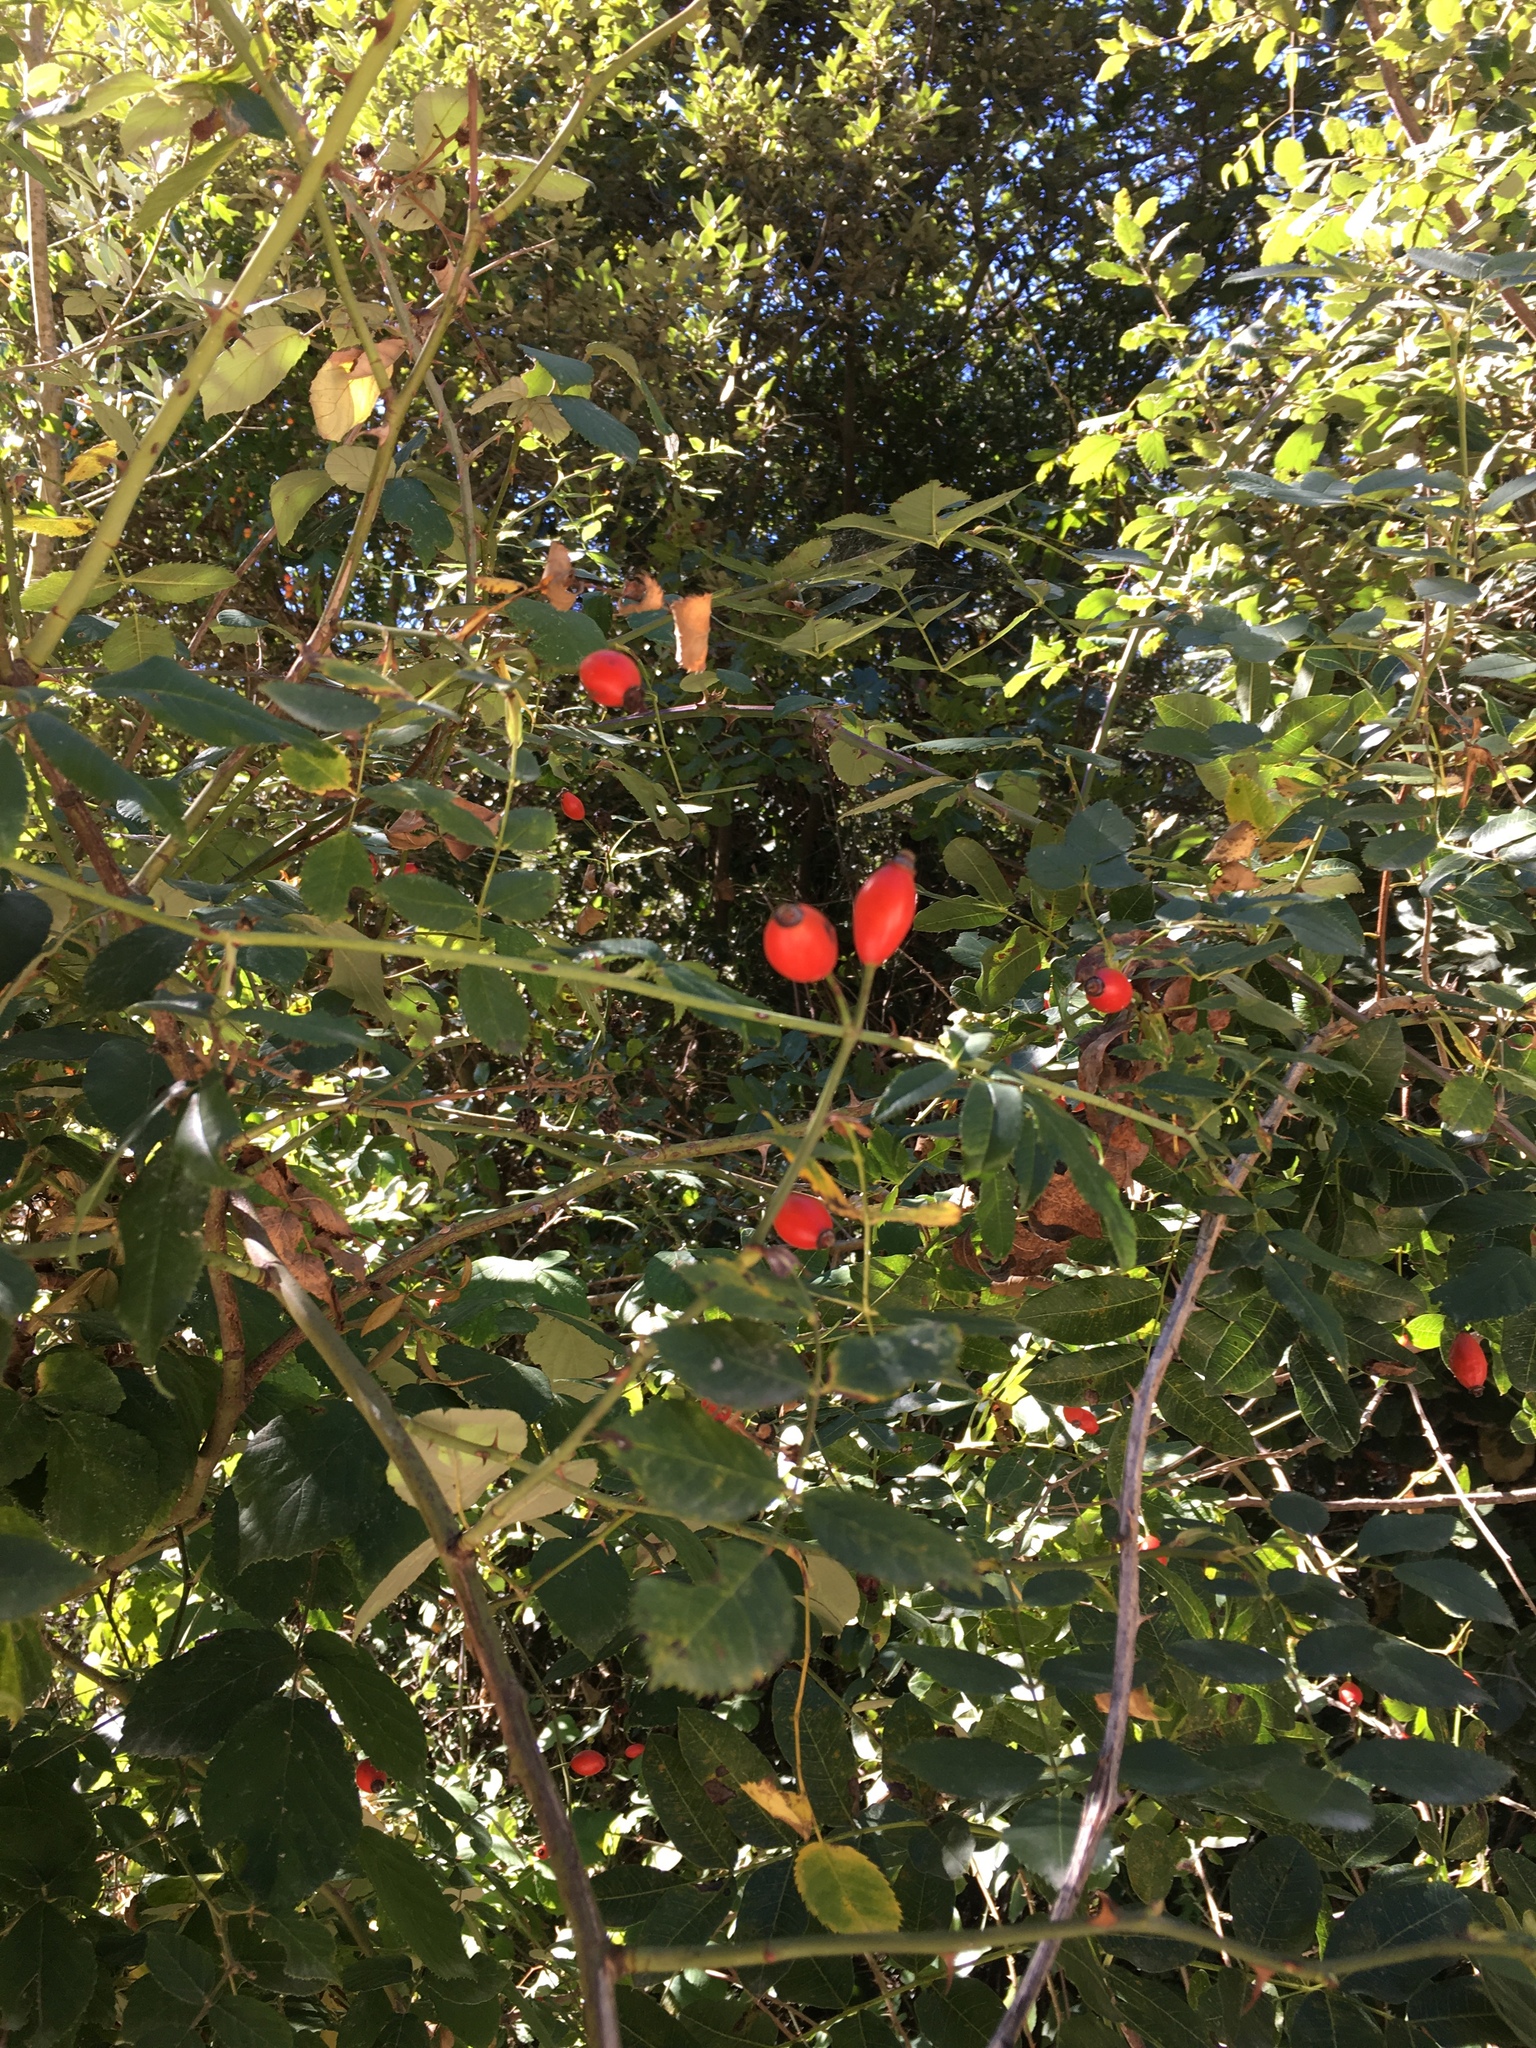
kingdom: Plantae
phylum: Tracheophyta
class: Magnoliopsida
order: Rosales
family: Rosaceae
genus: Rosa
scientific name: Rosa canina
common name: Dog rose
